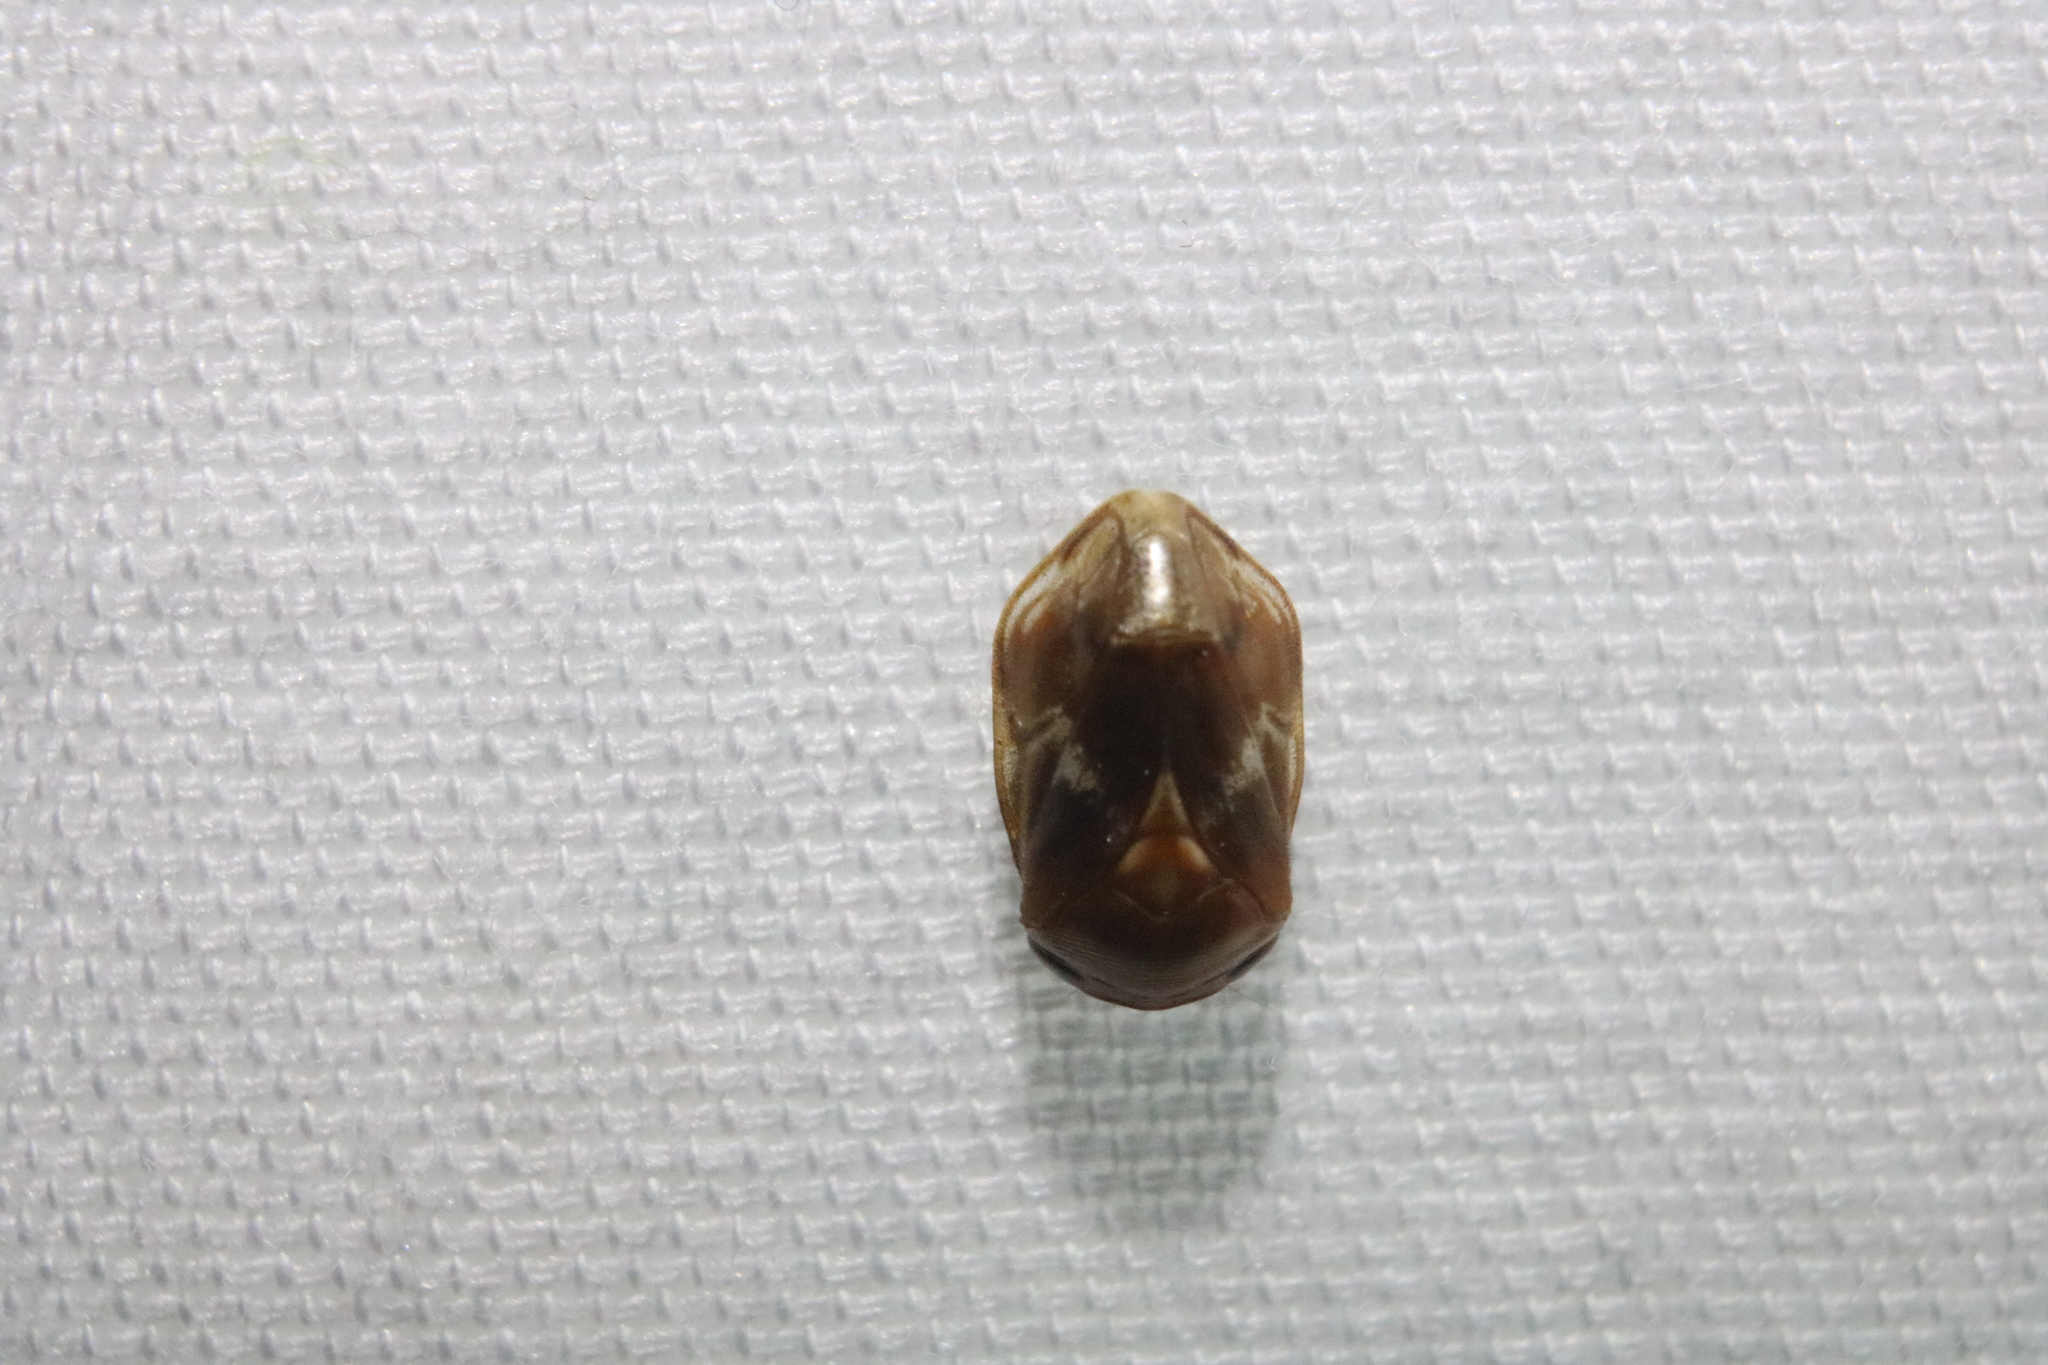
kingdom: Animalia
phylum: Arthropoda
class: Insecta
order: Hemiptera
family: Clastopteridae
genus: Clastoptera
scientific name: Clastoptera obtusa
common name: Alder spittlebug
